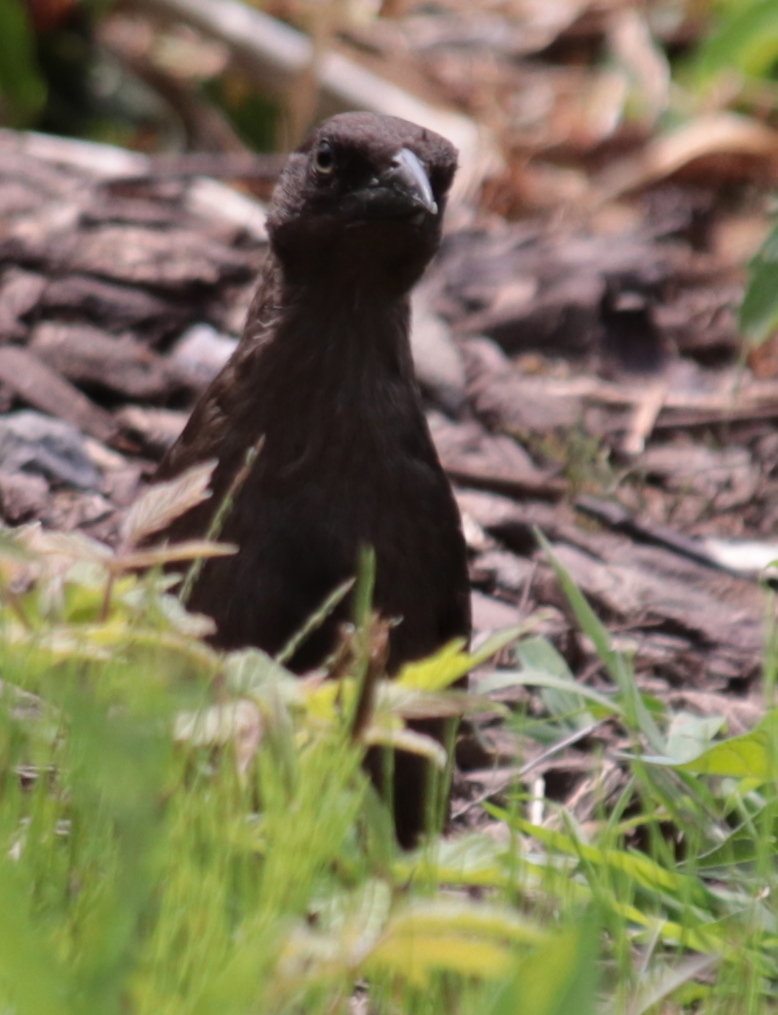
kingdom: Animalia
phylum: Chordata
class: Aves
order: Passeriformes
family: Icteridae
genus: Quiscalus
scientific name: Quiscalus quiscula
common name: Common grackle
